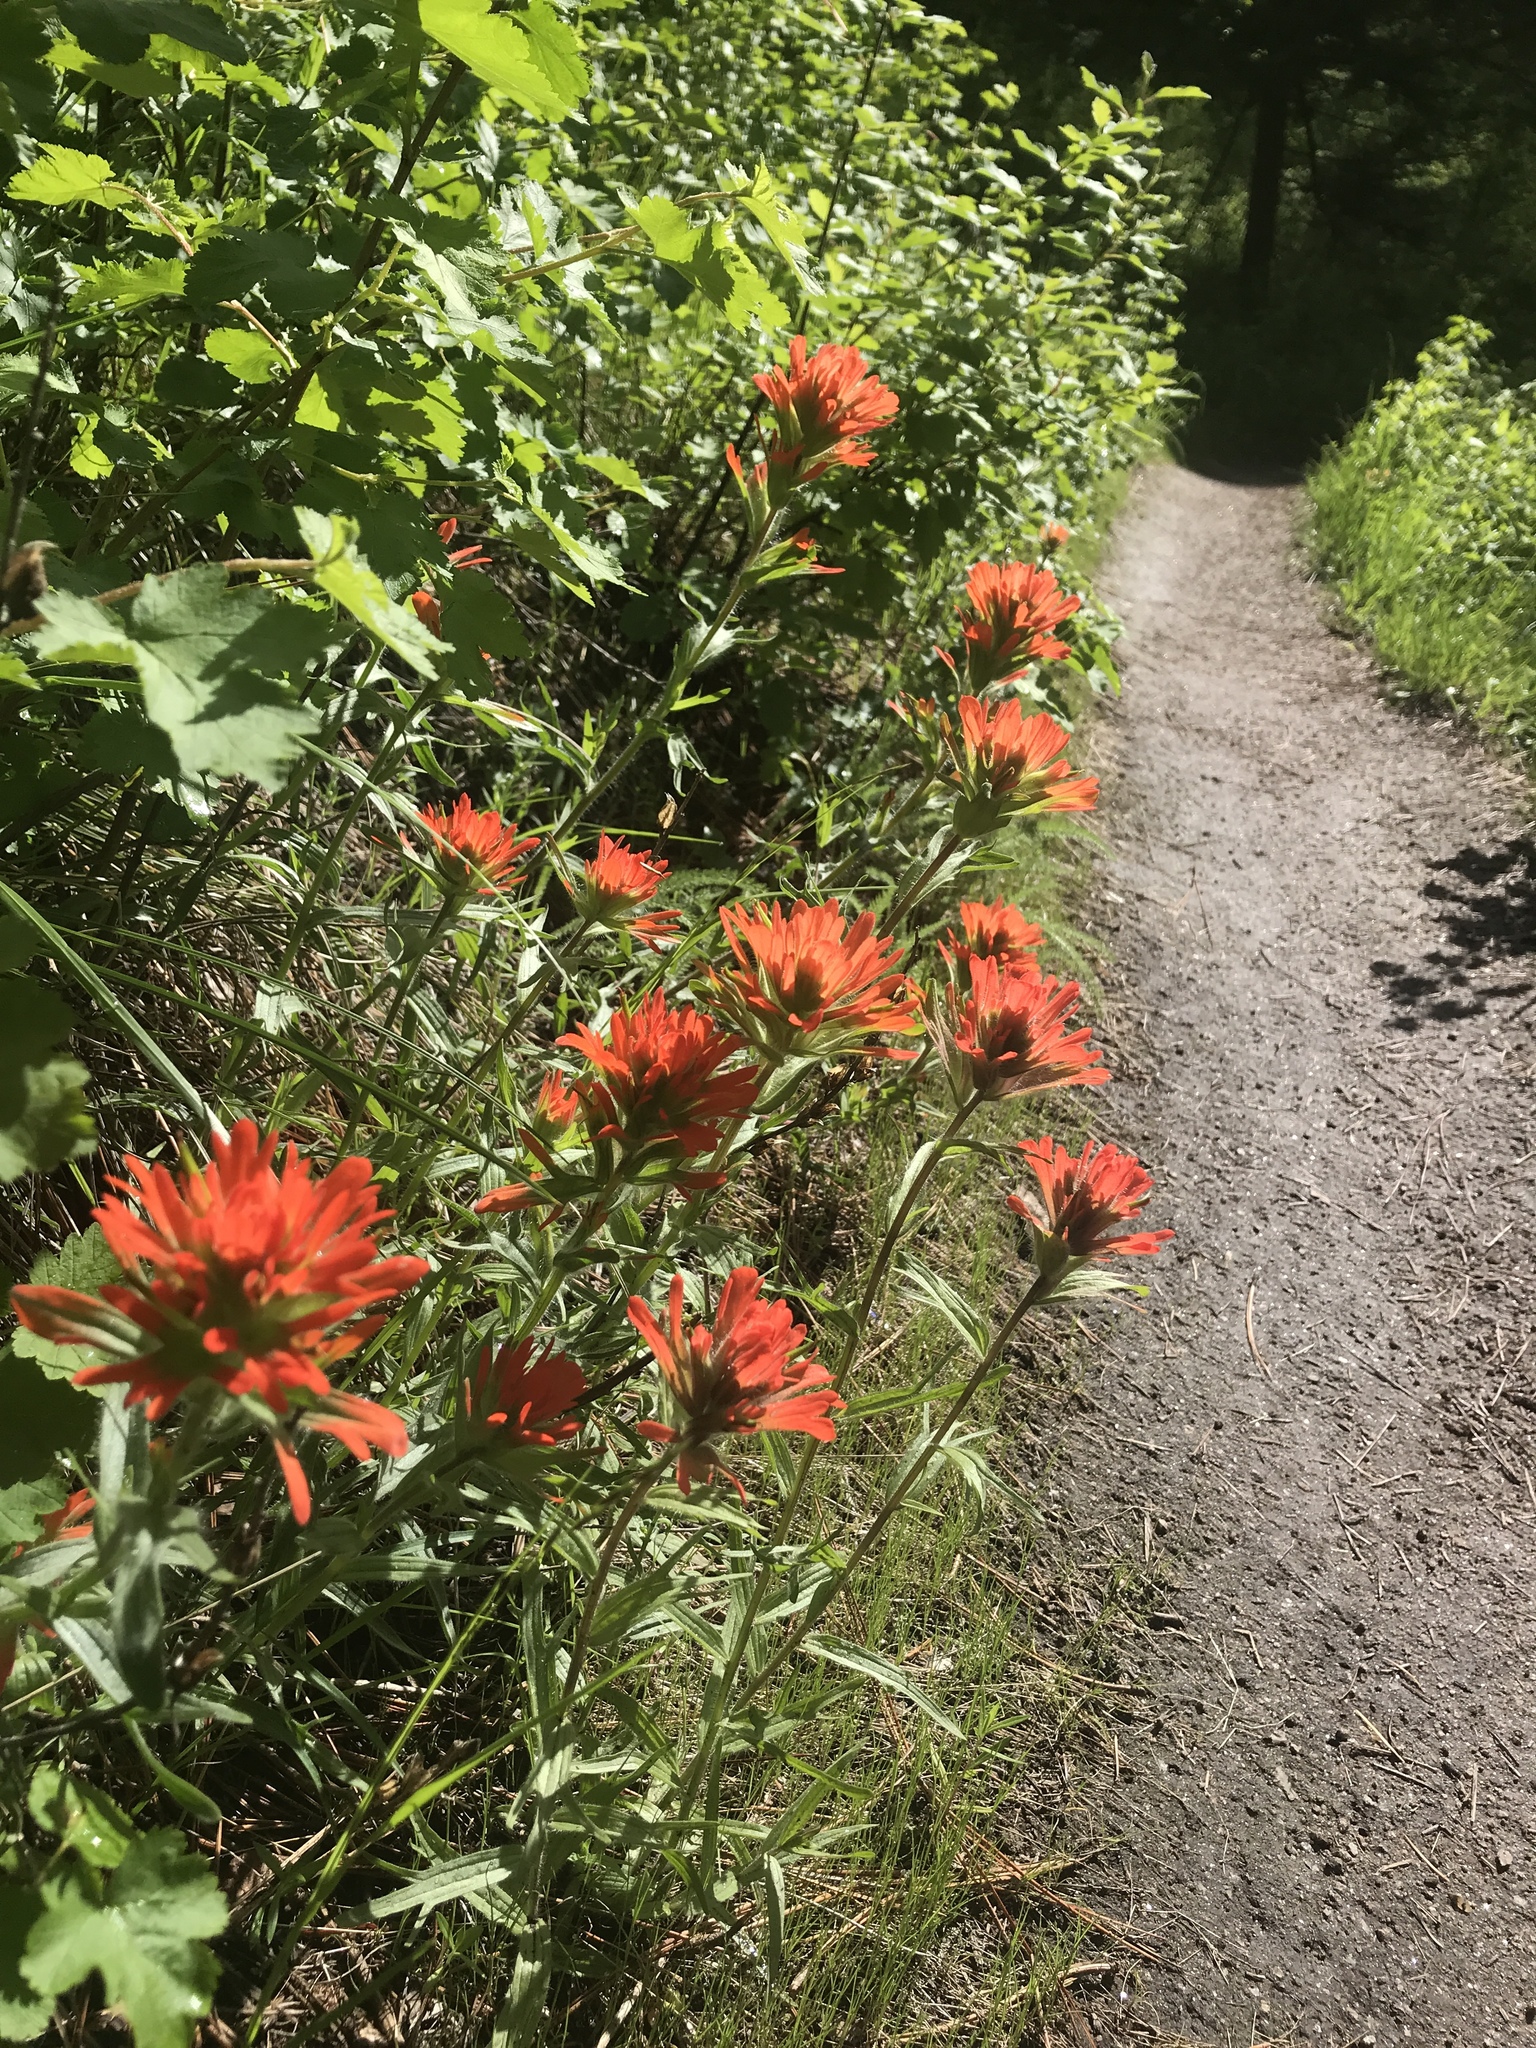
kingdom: Plantae
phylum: Tracheophyta
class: Magnoliopsida
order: Lamiales
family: Orobanchaceae
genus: Castilleja
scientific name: Castilleja hispida
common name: Bristly paintbrush
